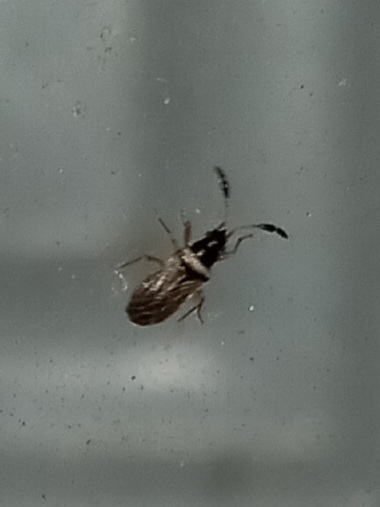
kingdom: Animalia
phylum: Arthropoda
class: Insecta
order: Hemiptera
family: Rhyparochromidae
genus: Ptochiomera
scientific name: Ptochiomera nodosa
